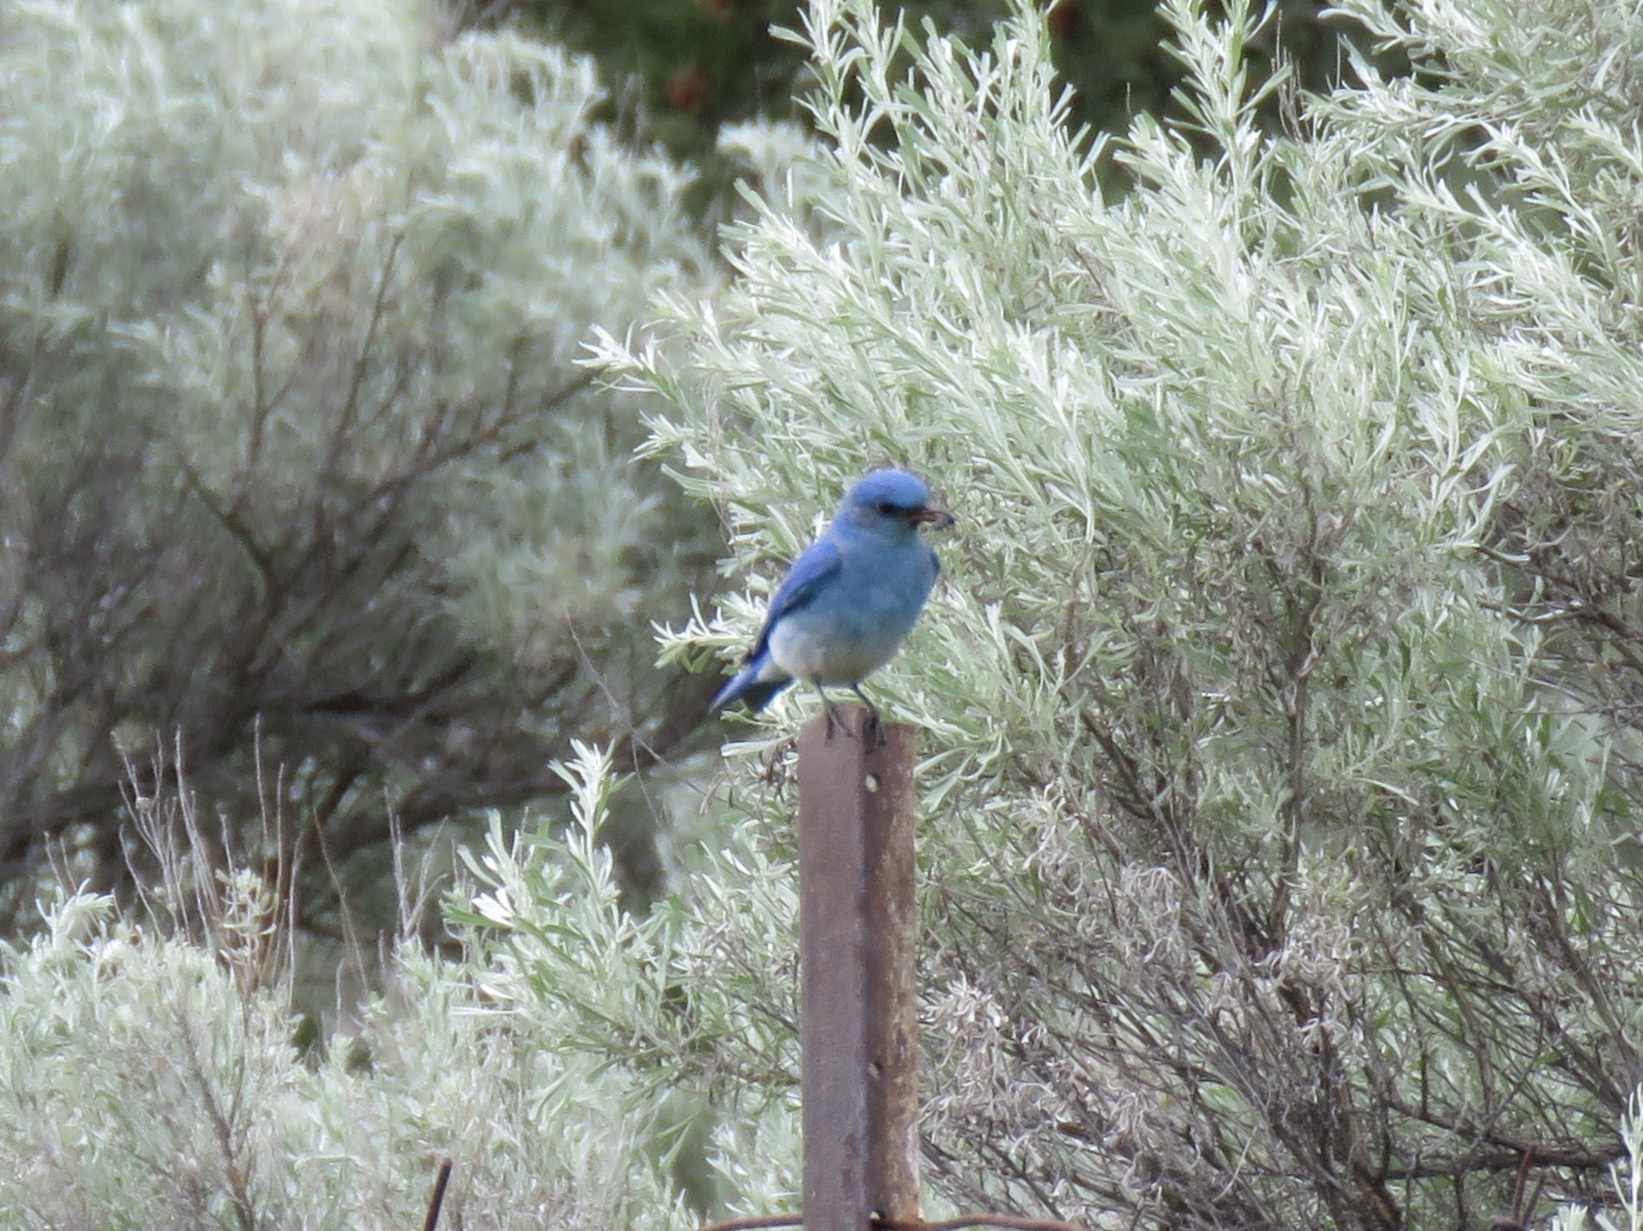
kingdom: Animalia
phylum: Chordata
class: Aves
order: Passeriformes
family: Turdidae
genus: Sialia
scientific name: Sialia currucoides
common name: Mountain bluebird
